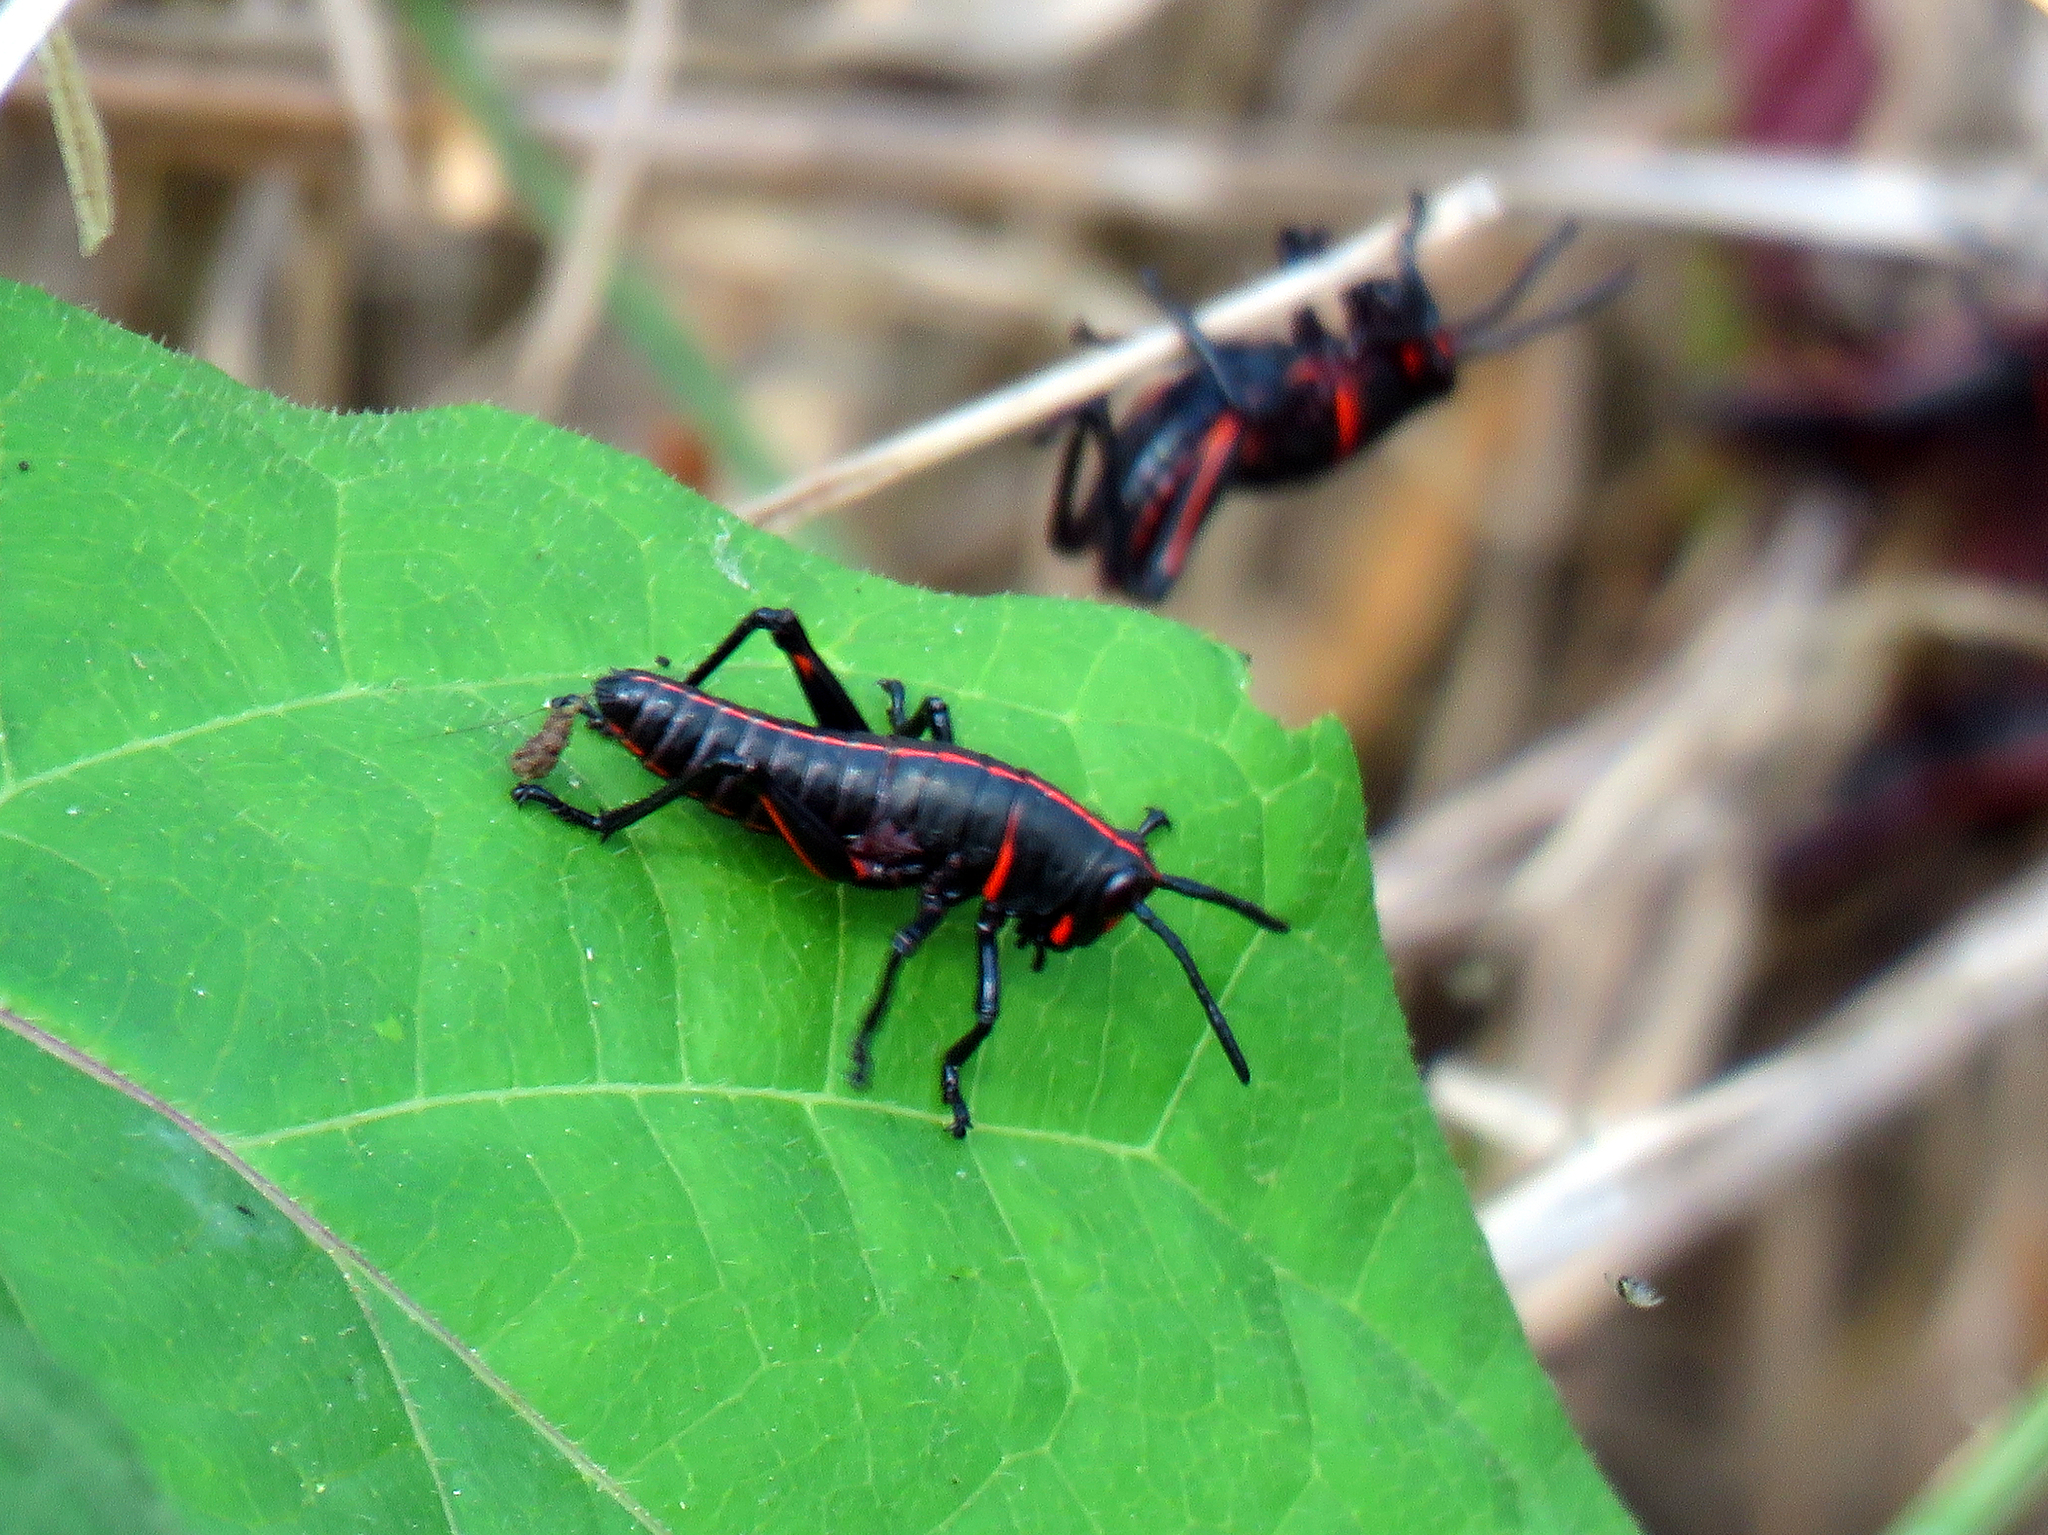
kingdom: Animalia
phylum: Arthropoda
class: Insecta
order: Orthoptera
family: Romaleidae
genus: Romalea
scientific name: Romalea microptera
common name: Eastern lubber grasshopper
